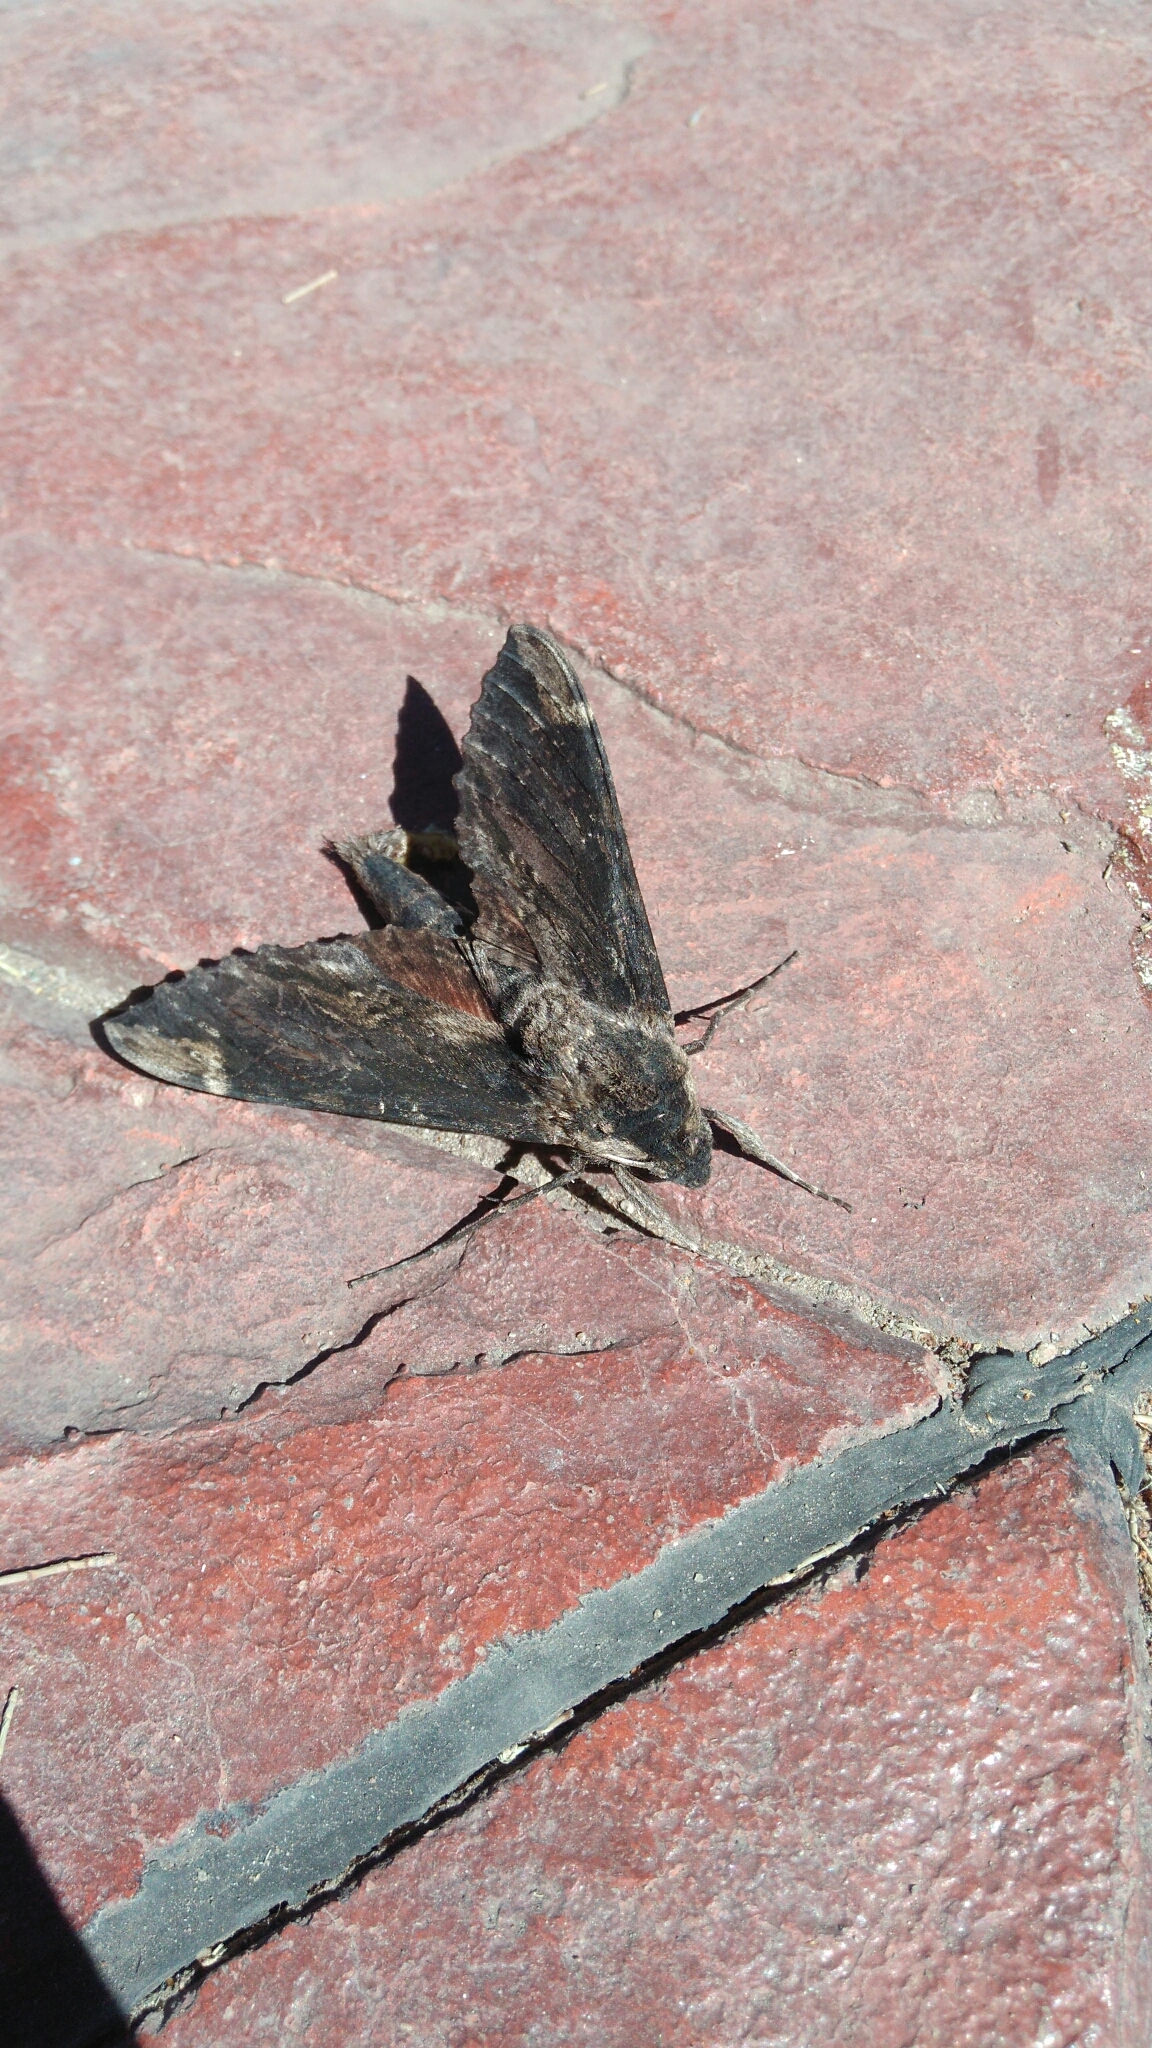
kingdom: Animalia
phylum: Arthropoda
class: Insecta
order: Lepidoptera
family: Sphingidae
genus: Erinnyis
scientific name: Erinnyis lassauxi
